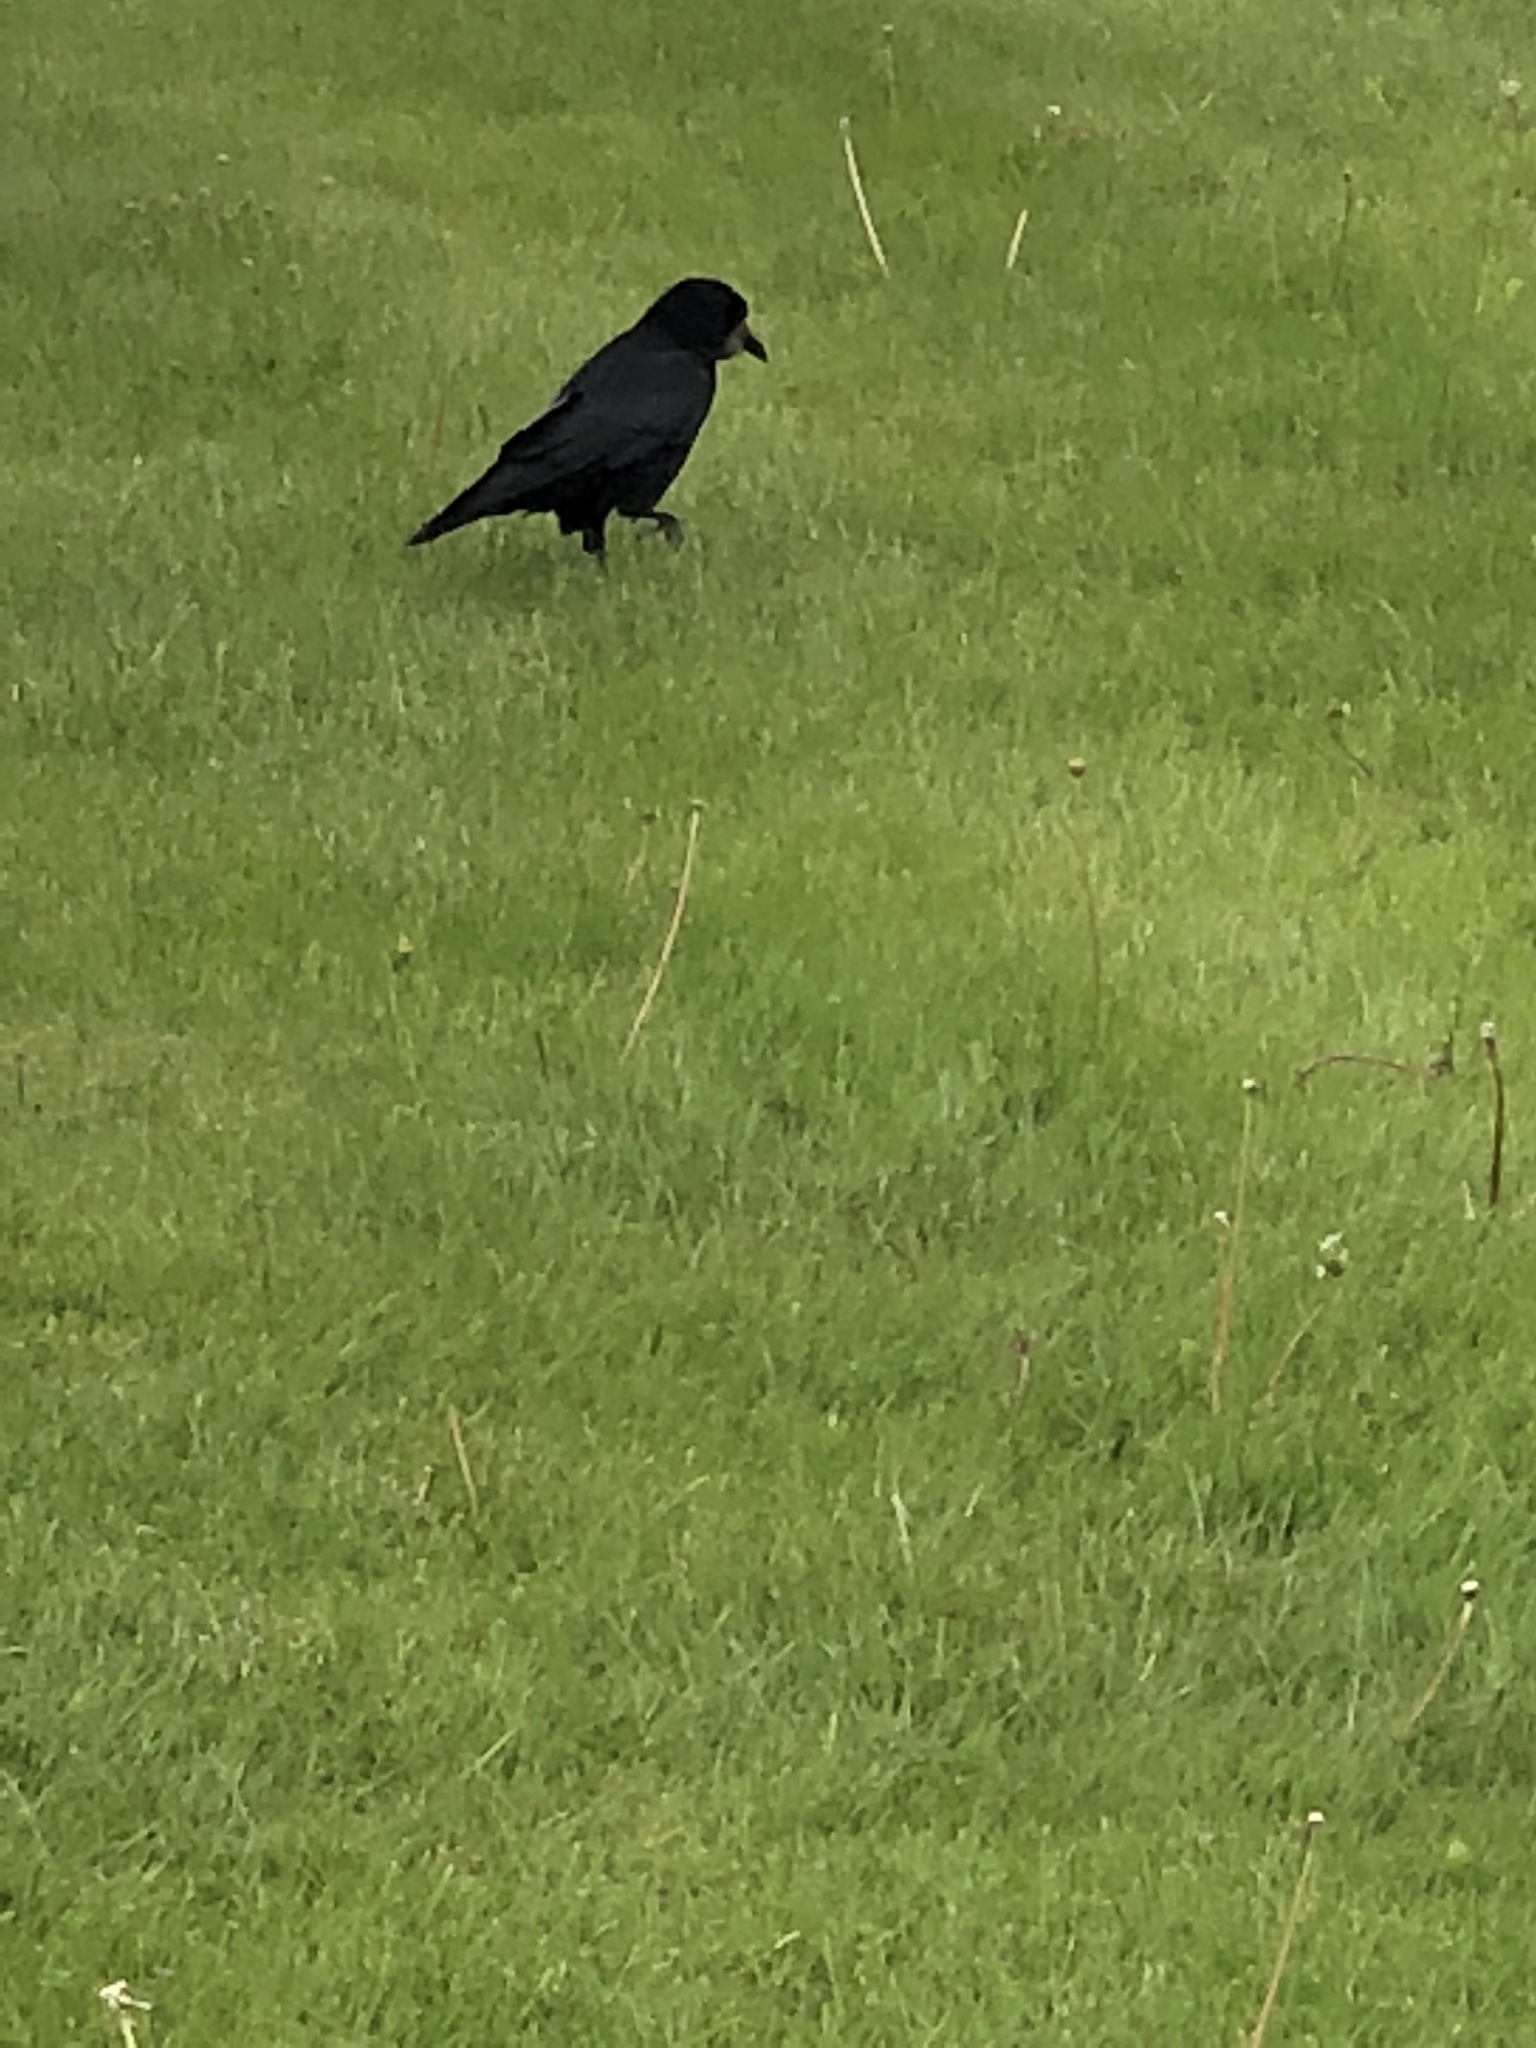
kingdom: Animalia
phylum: Chordata
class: Aves
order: Passeriformes
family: Corvidae
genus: Corvus
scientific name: Corvus frugilegus
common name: Rook
